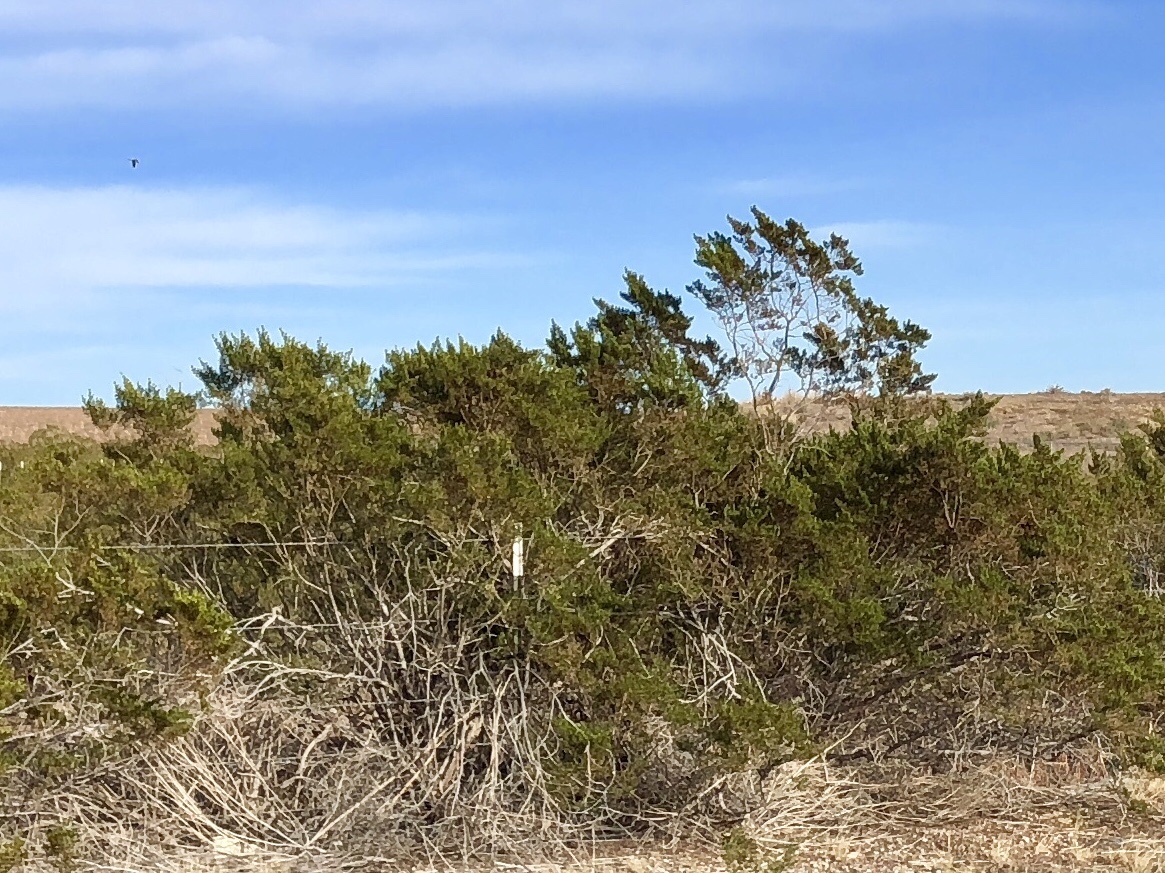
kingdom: Plantae
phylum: Tracheophyta
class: Magnoliopsida
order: Zygophyllales
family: Zygophyllaceae
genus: Larrea
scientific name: Larrea tridentata
